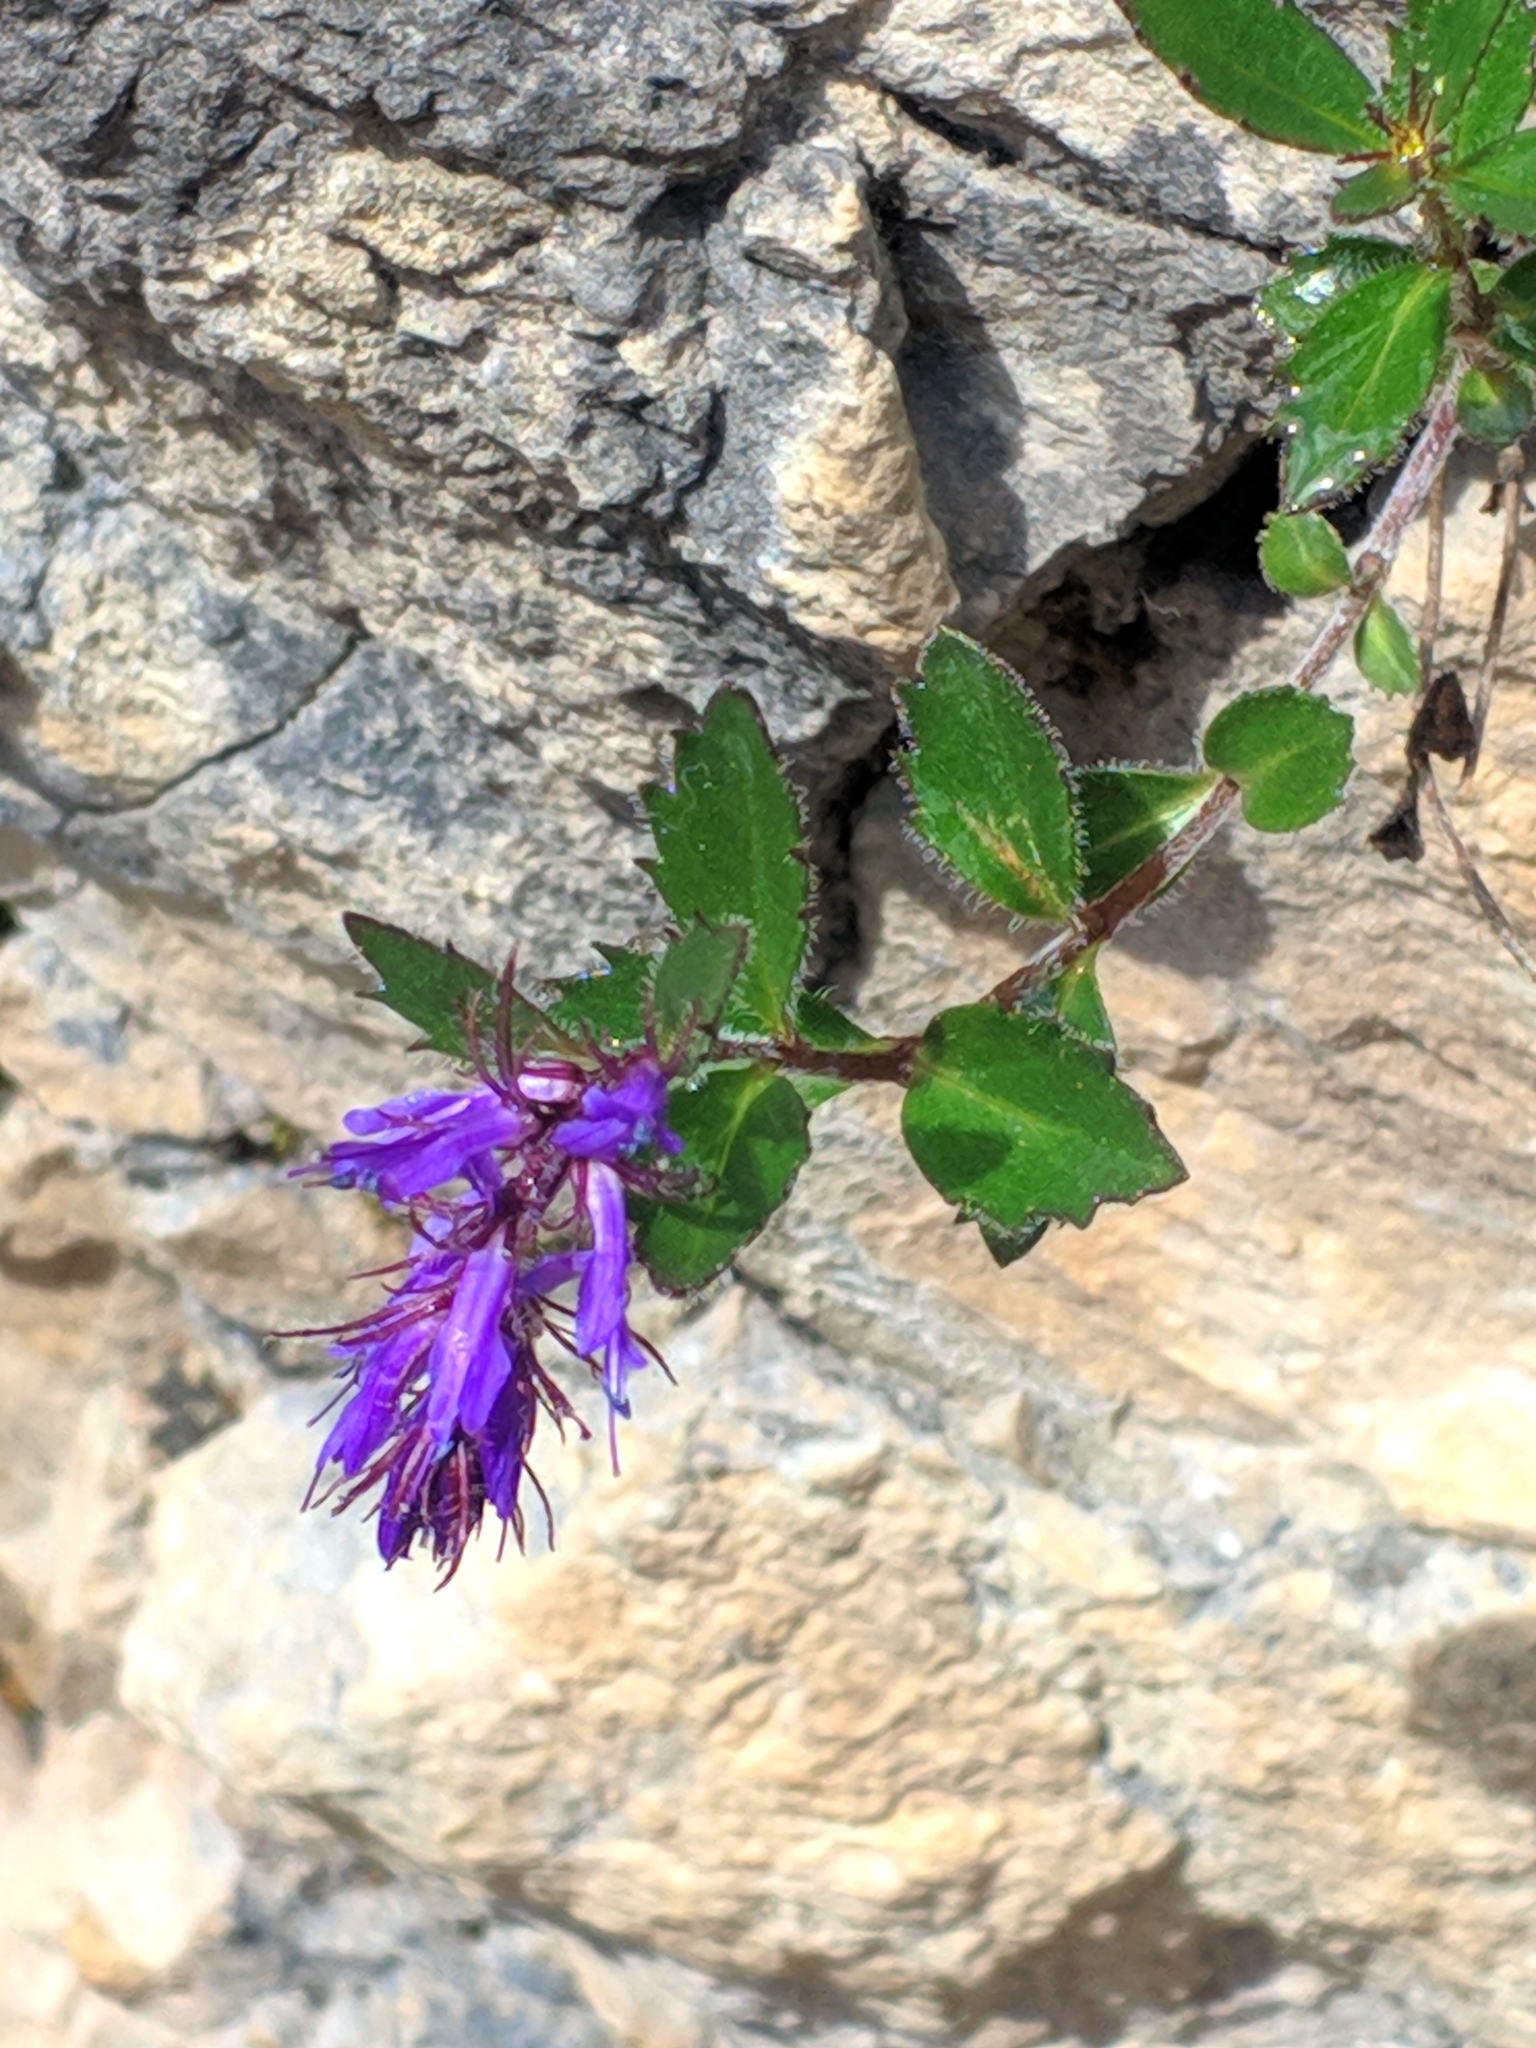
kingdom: Plantae
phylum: Tracheophyta
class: Magnoliopsida
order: Lamiales
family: Plantaginaceae
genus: Paederota
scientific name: Paederota bonarota
